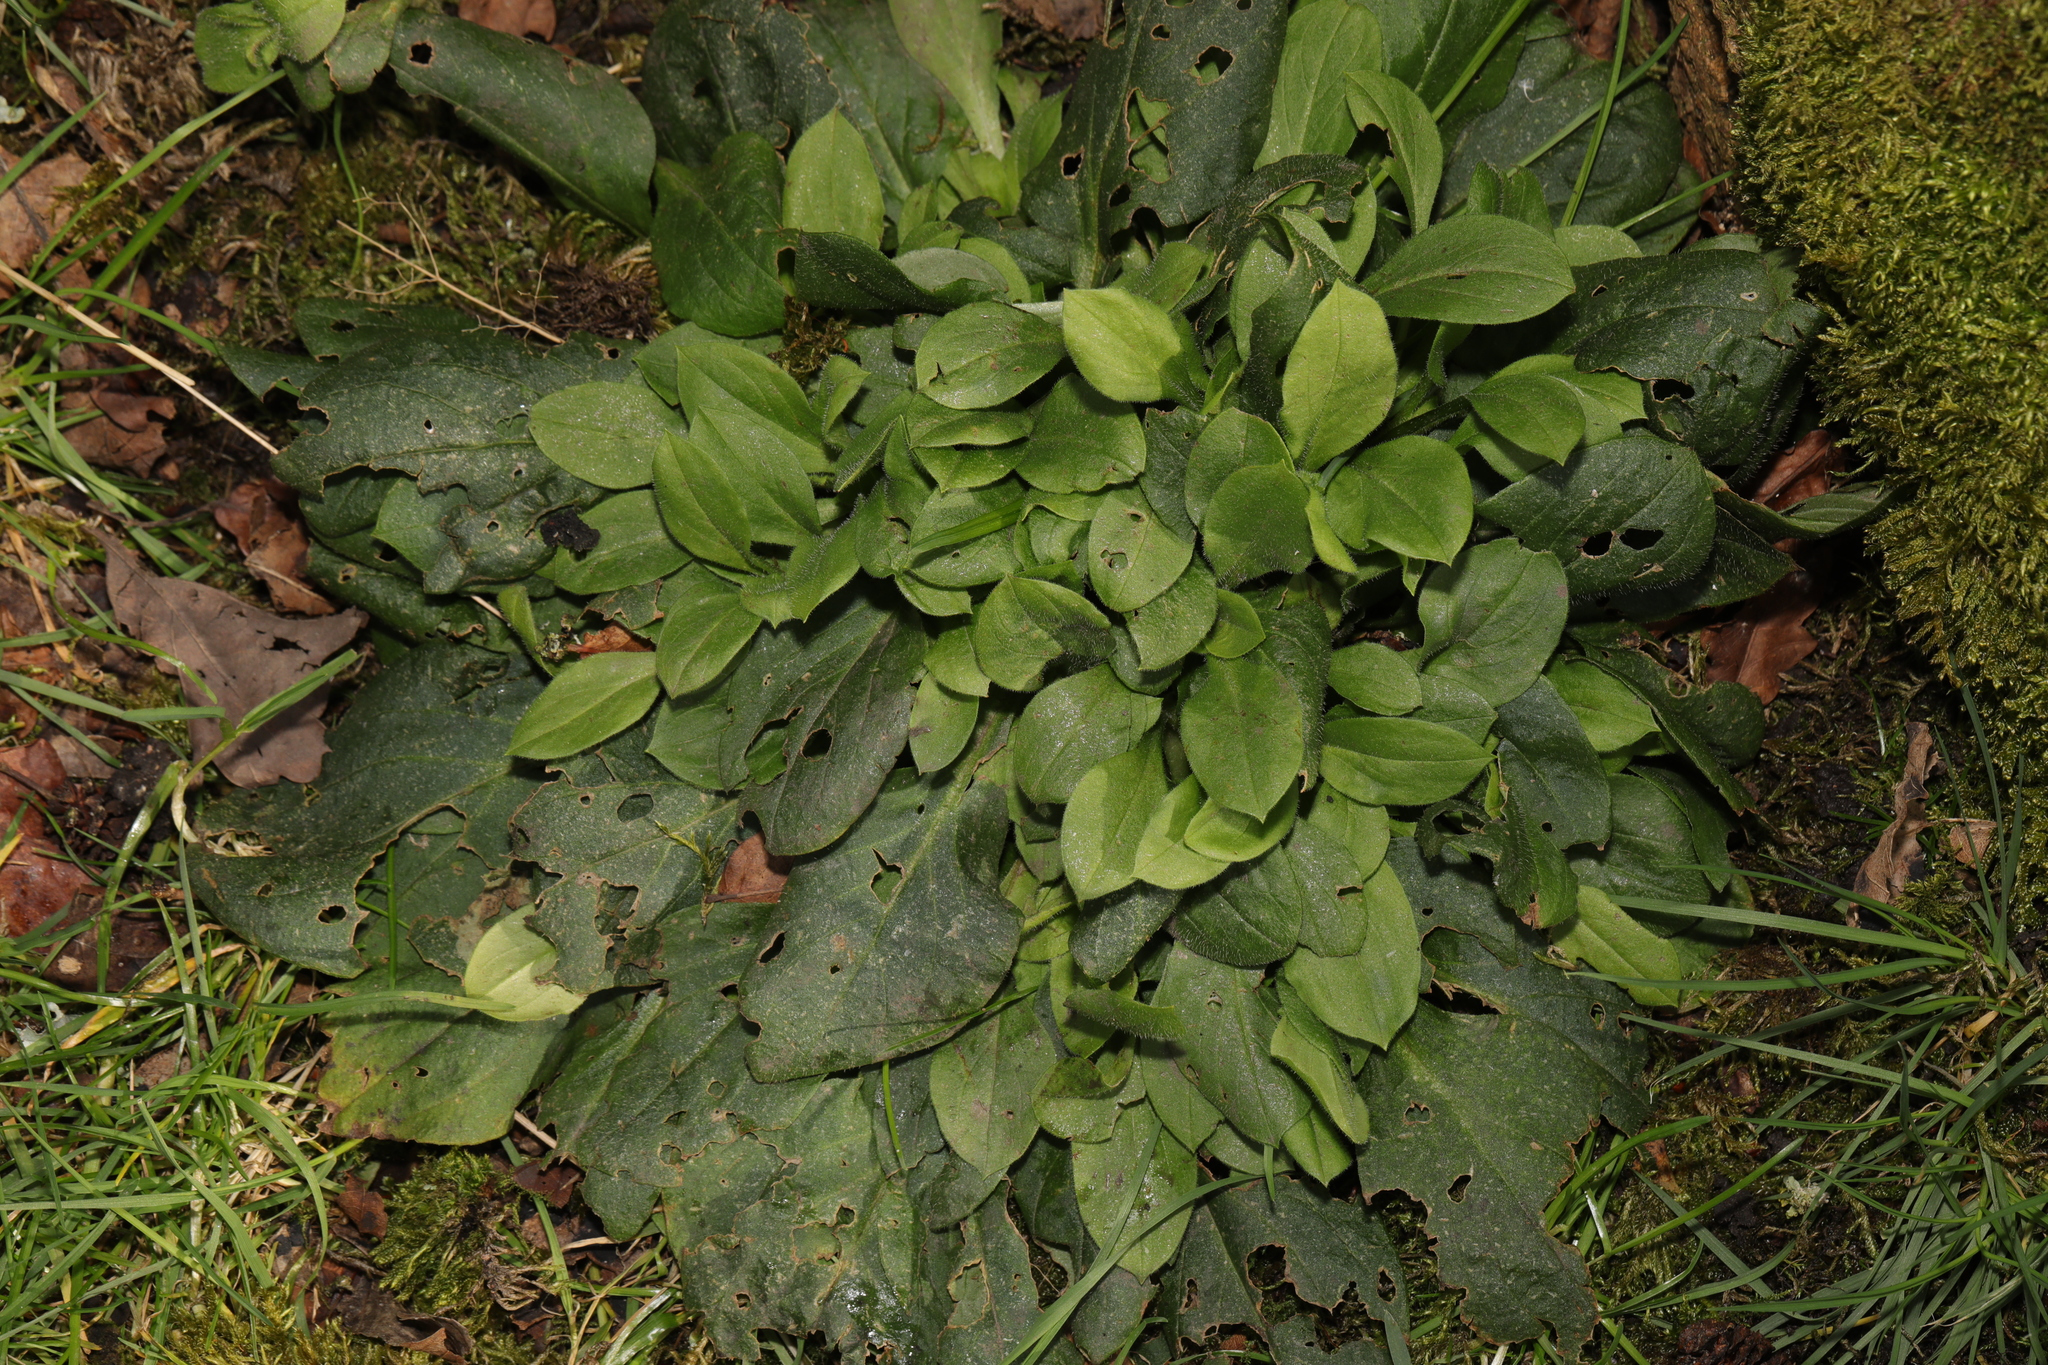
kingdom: Plantae
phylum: Tracheophyta
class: Magnoliopsida
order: Caryophyllales
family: Caryophyllaceae
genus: Silene
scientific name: Silene dioica
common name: Red campion
